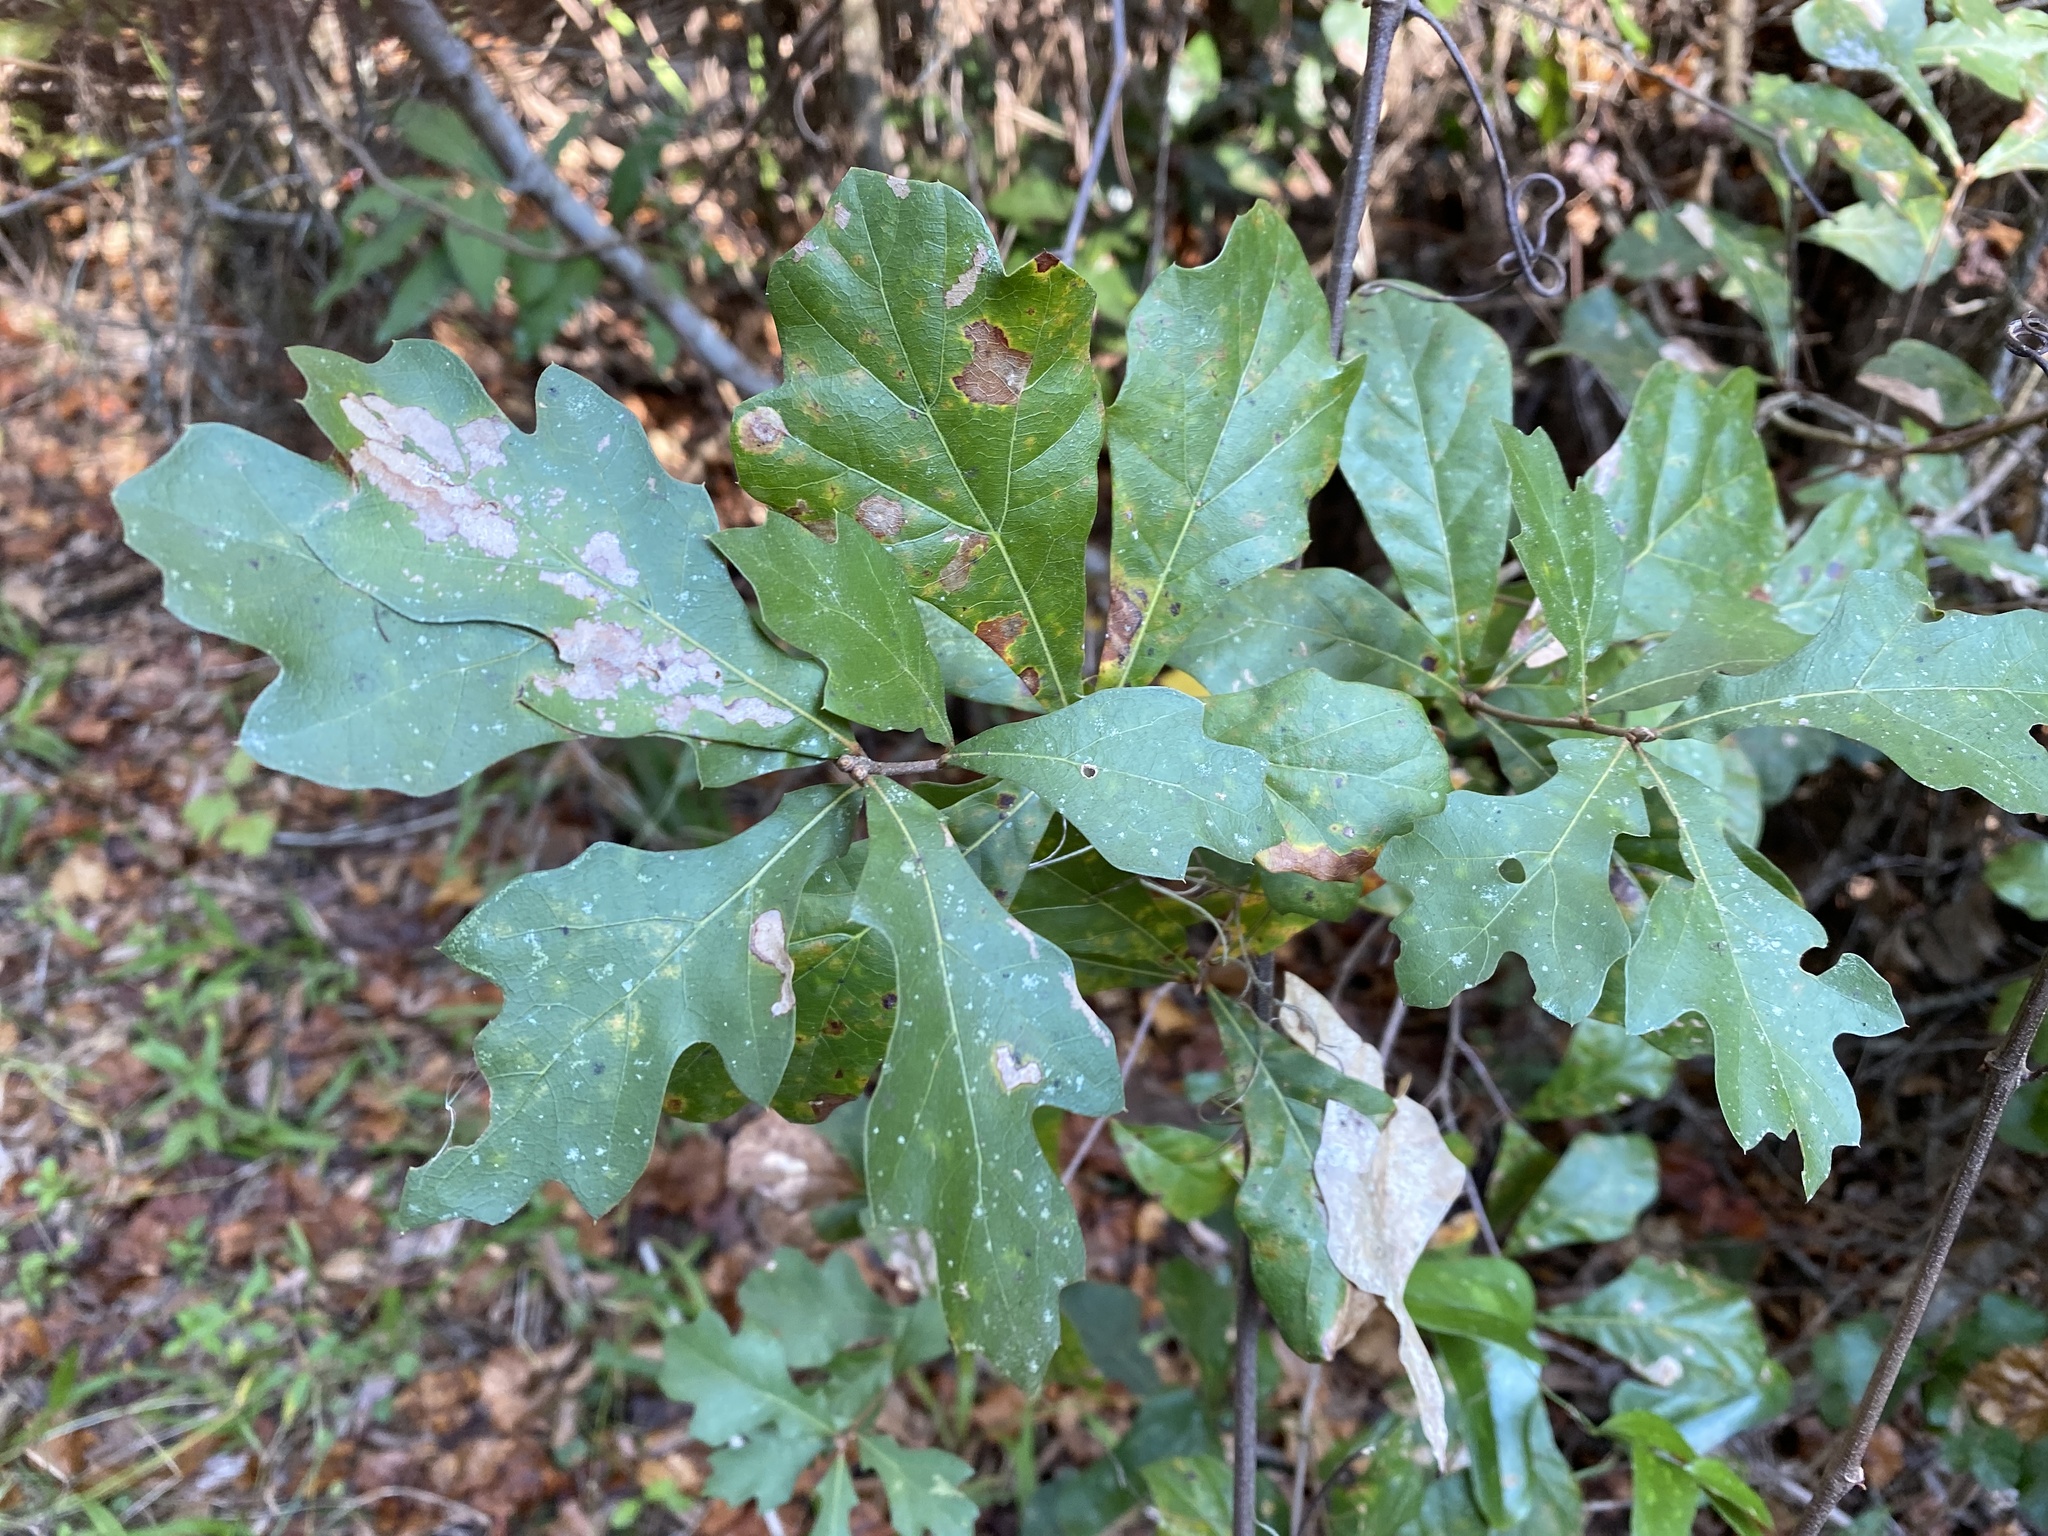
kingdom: Plantae
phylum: Tracheophyta
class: Magnoliopsida
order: Fagales
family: Fagaceae
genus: Quercus
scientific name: Quercus nigra
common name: Water oak
